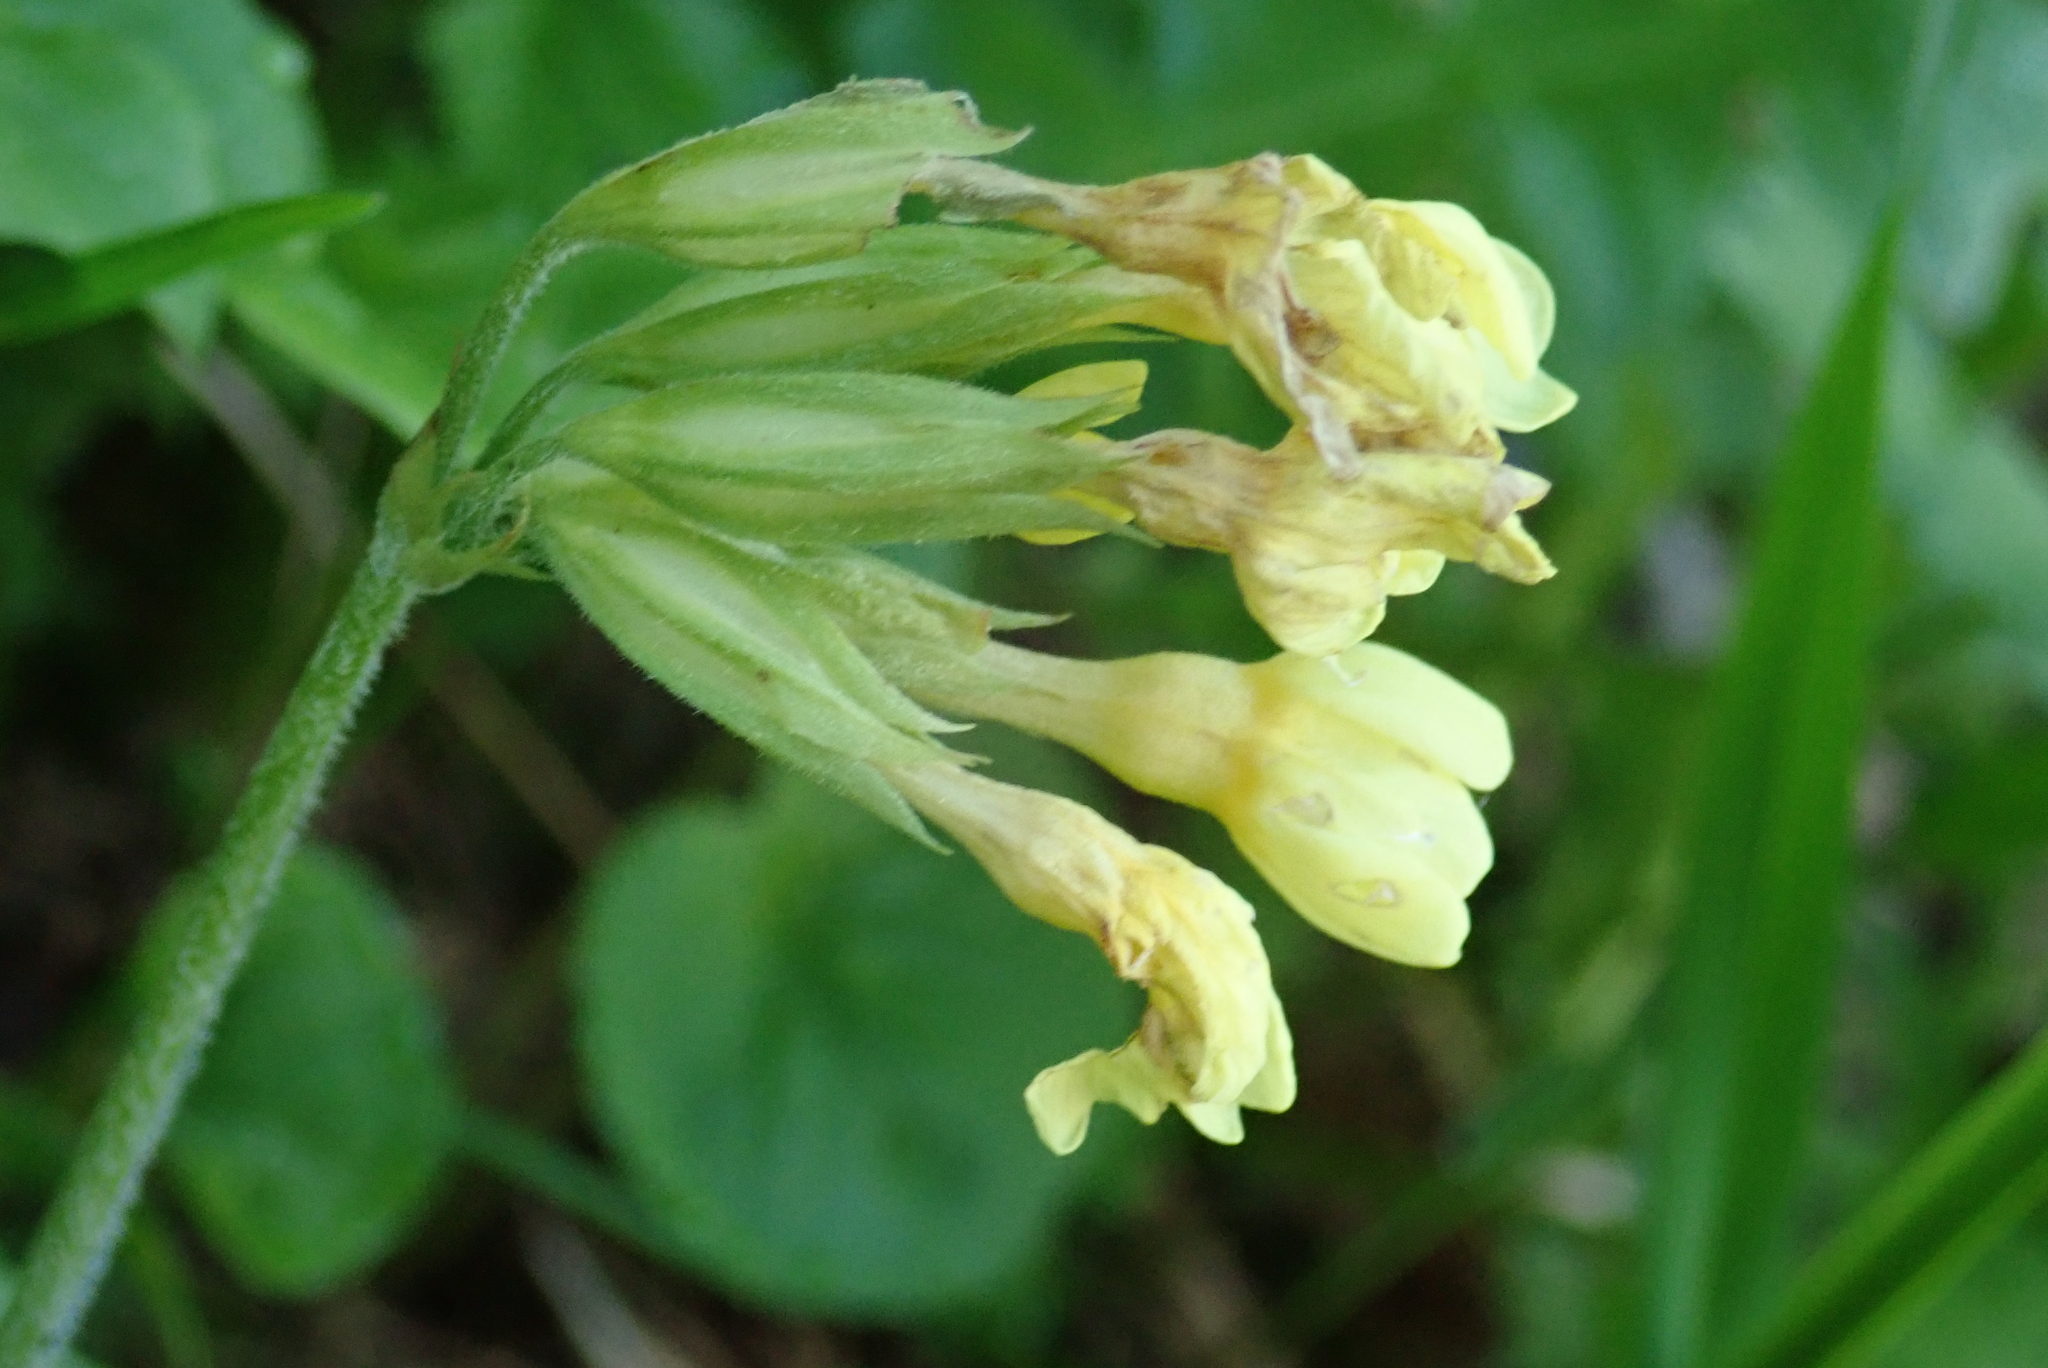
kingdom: Plantae
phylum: Tracheophyta
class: Magnoliopsida
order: Ericales
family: Primulaceae
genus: Primula
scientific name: Primula elatior
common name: Oxlip
